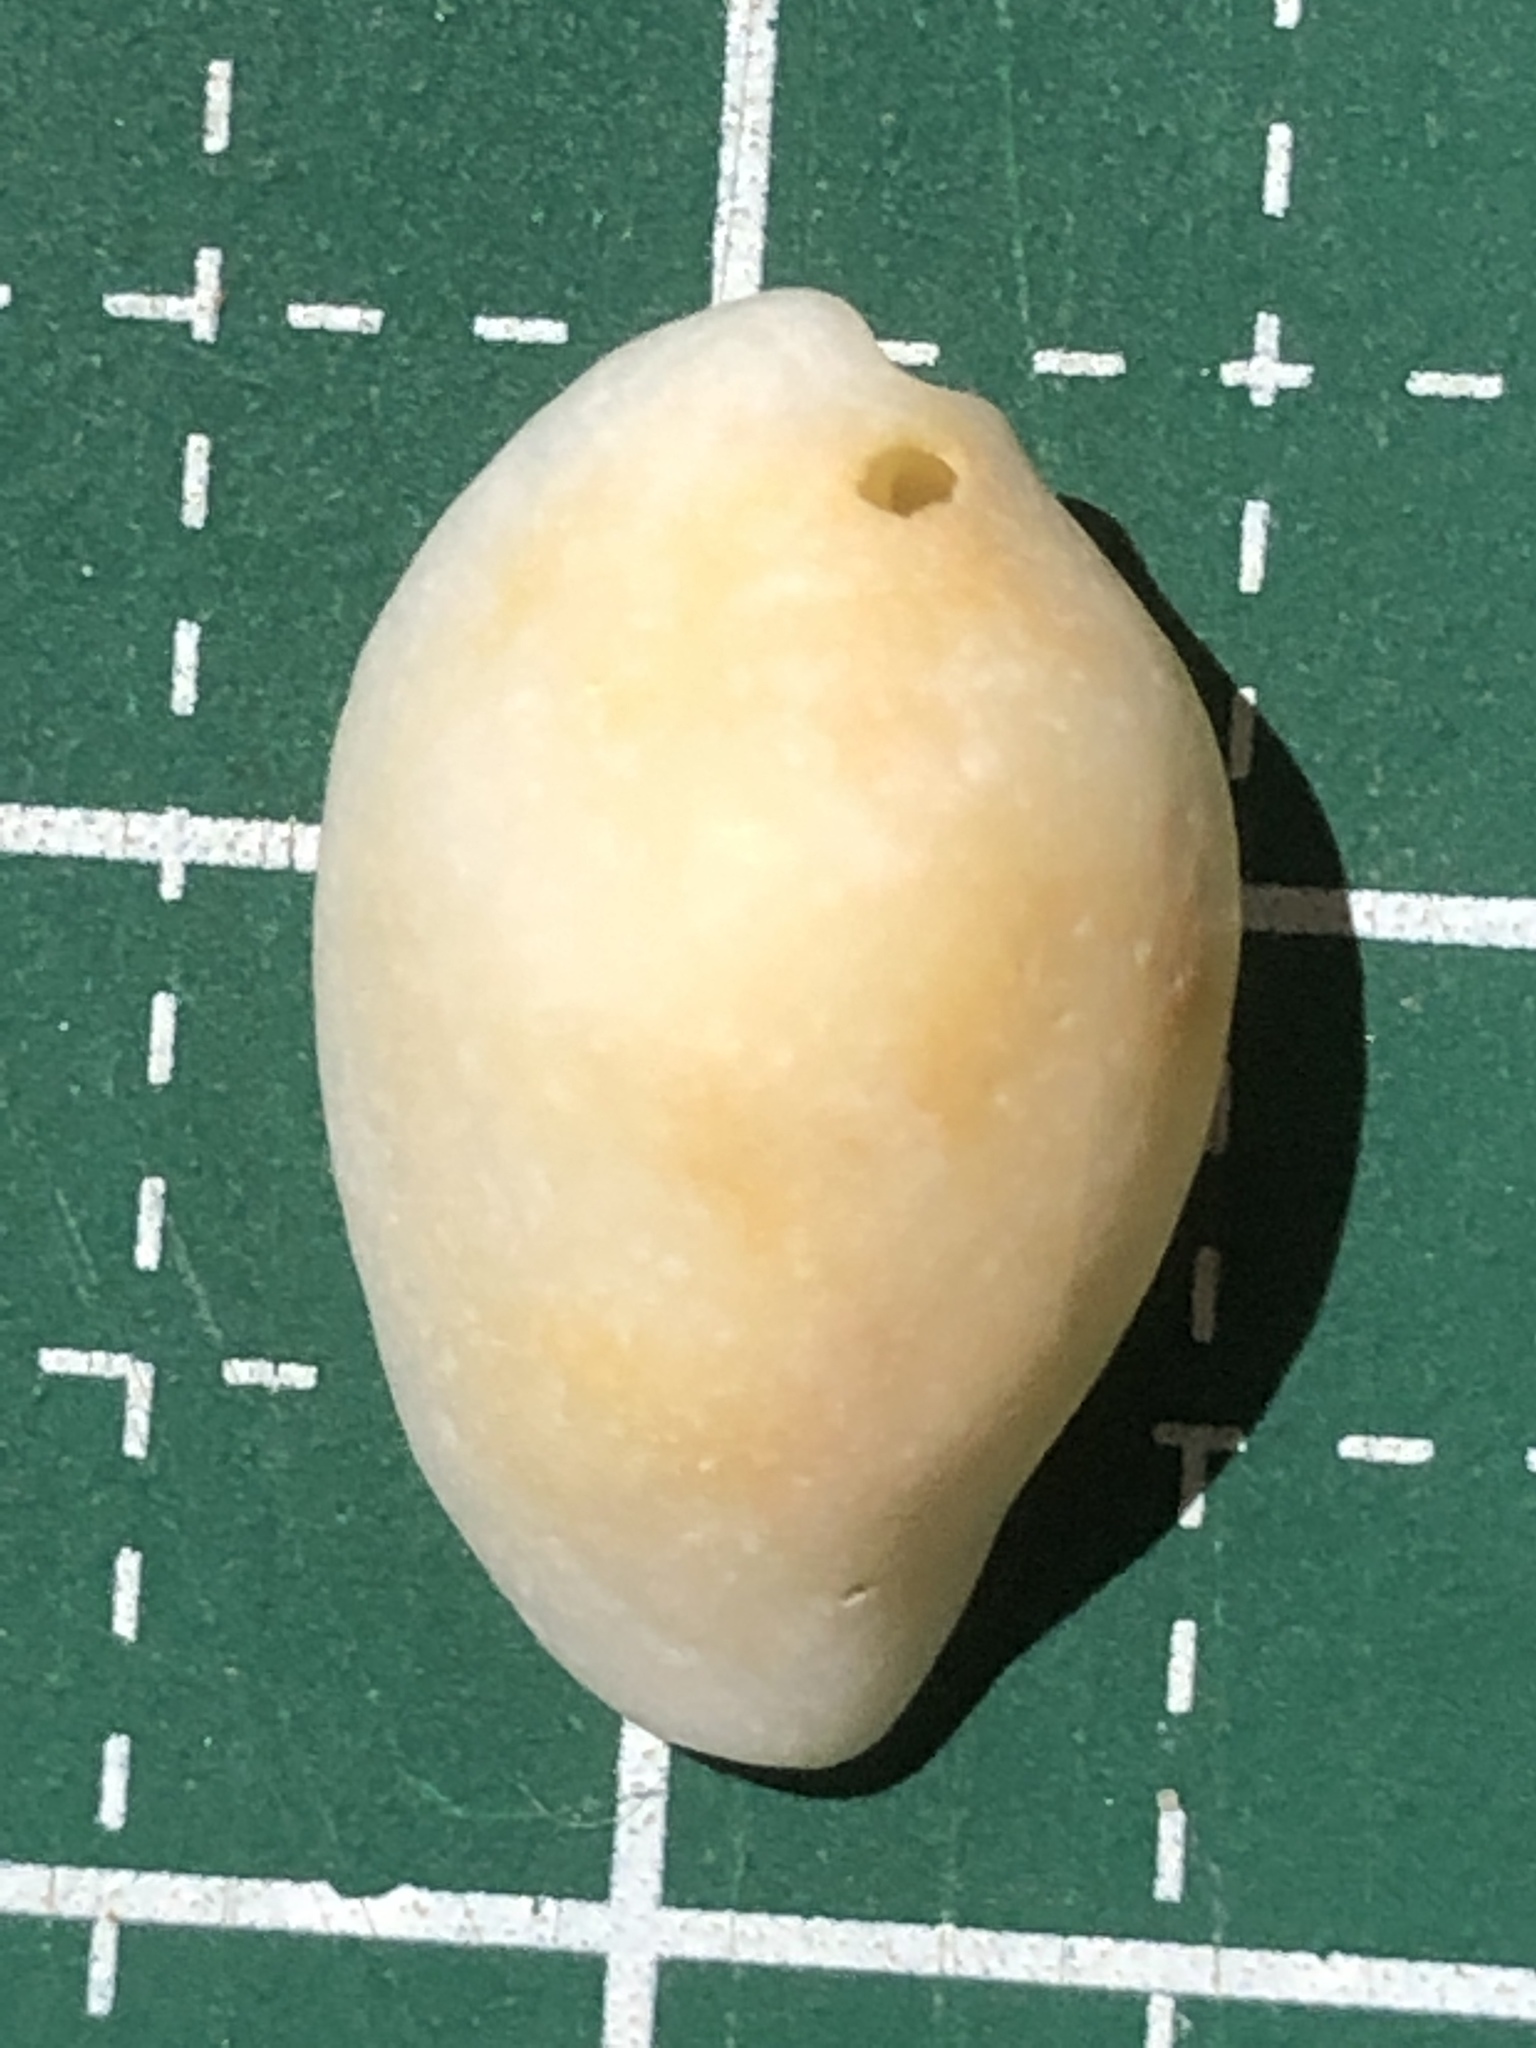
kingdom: Animalia
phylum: Mollusca
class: Gastropoda
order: Littorinimorpha
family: Ovulidae
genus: Procalpurnus
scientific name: Procalpurnus lacteus
